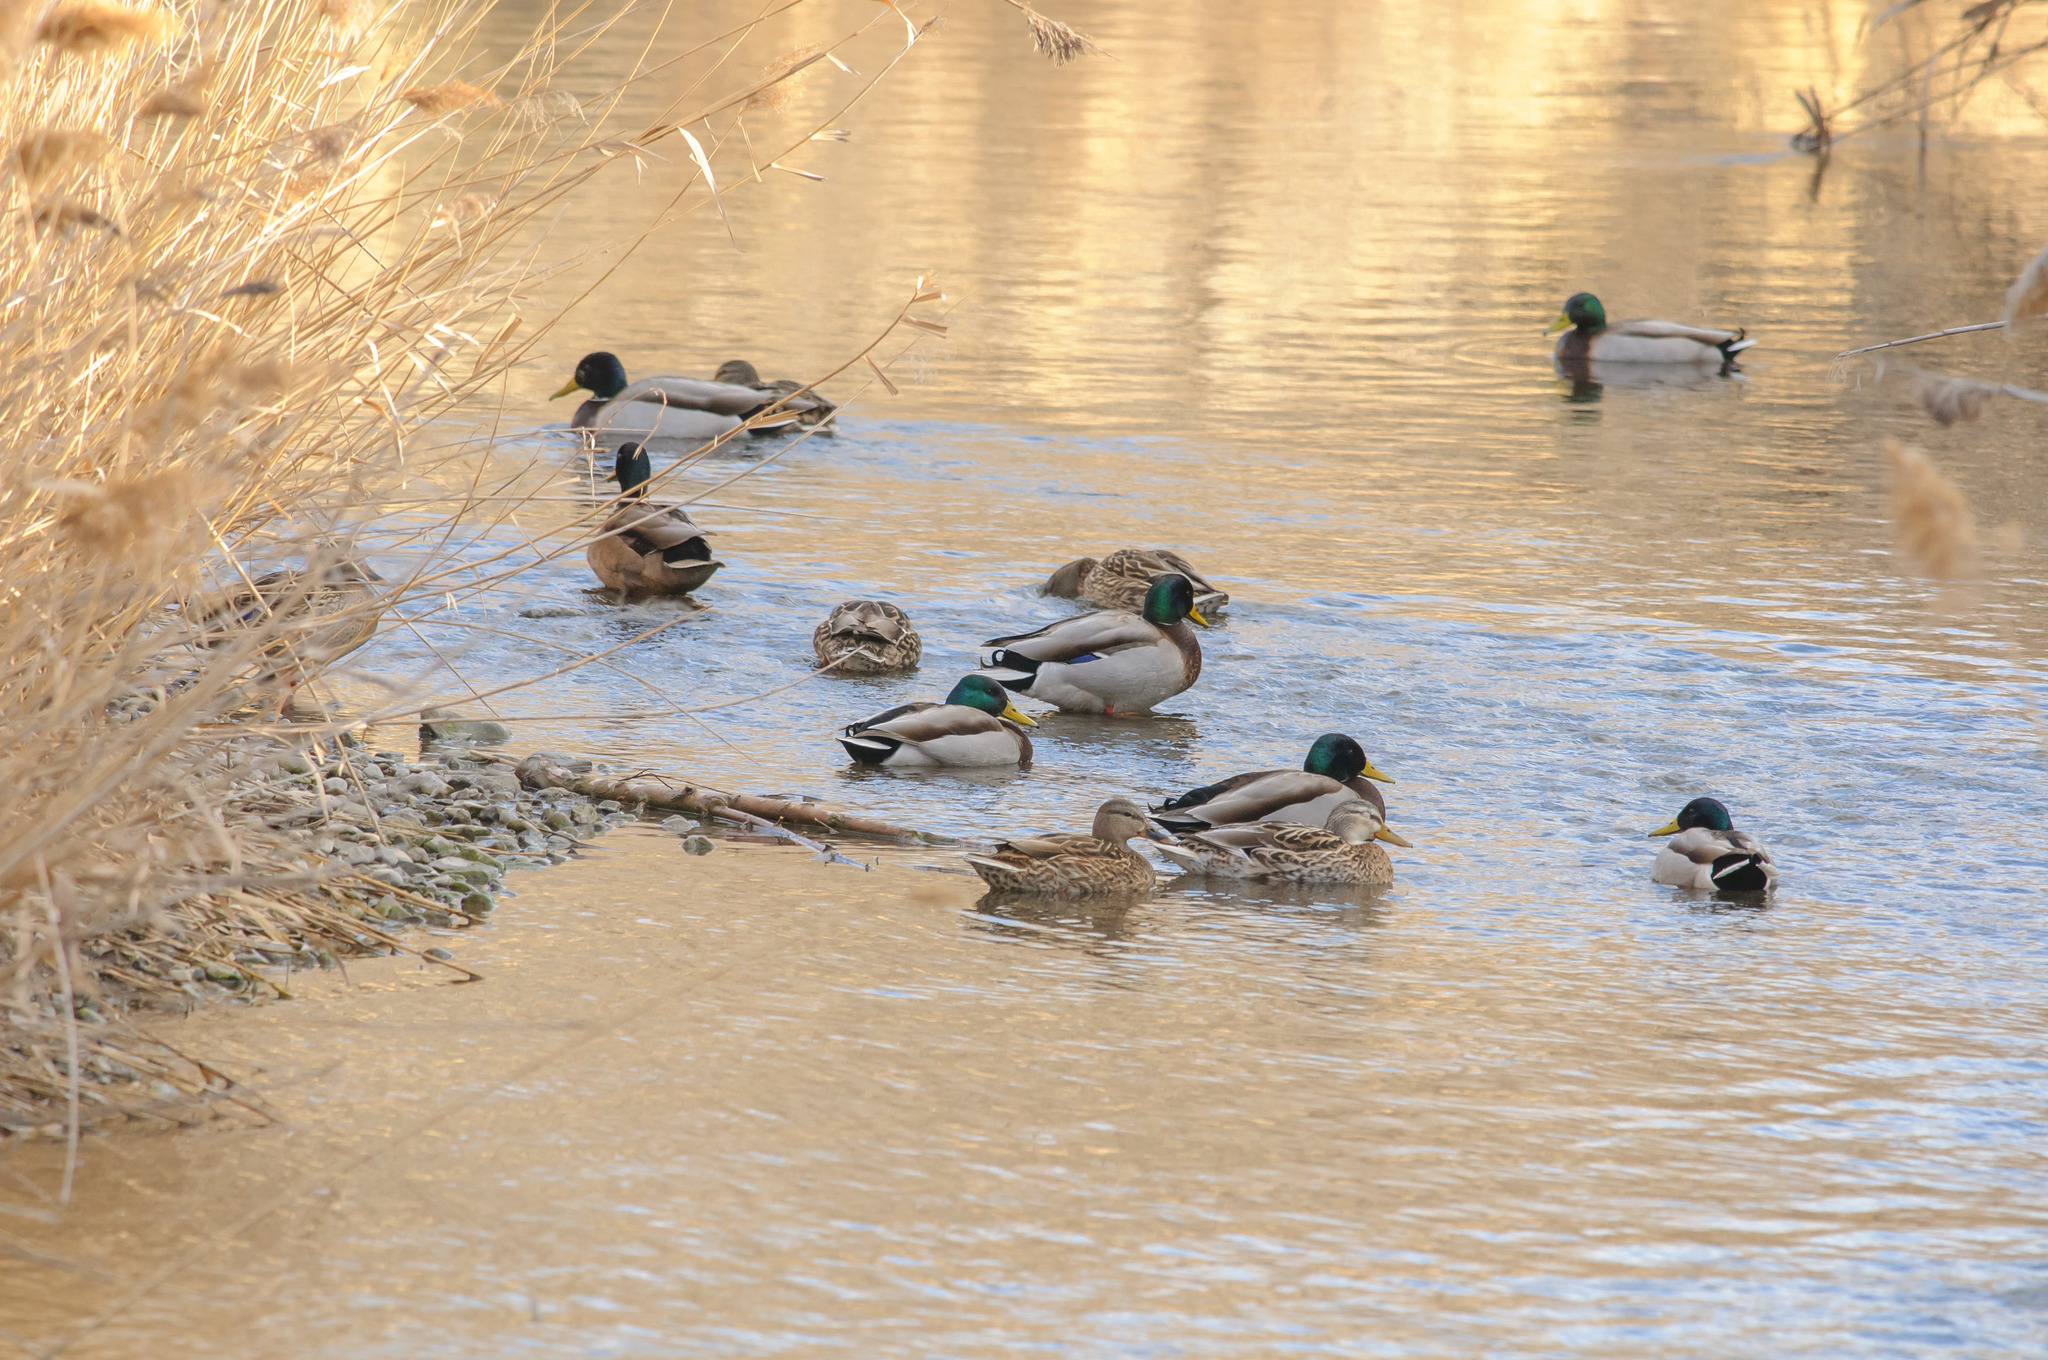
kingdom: Animalia
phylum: Chordata
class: Aves
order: Anseriformes
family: Anatidae
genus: Anas
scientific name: Anas platyrhynchos
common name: Mallard
